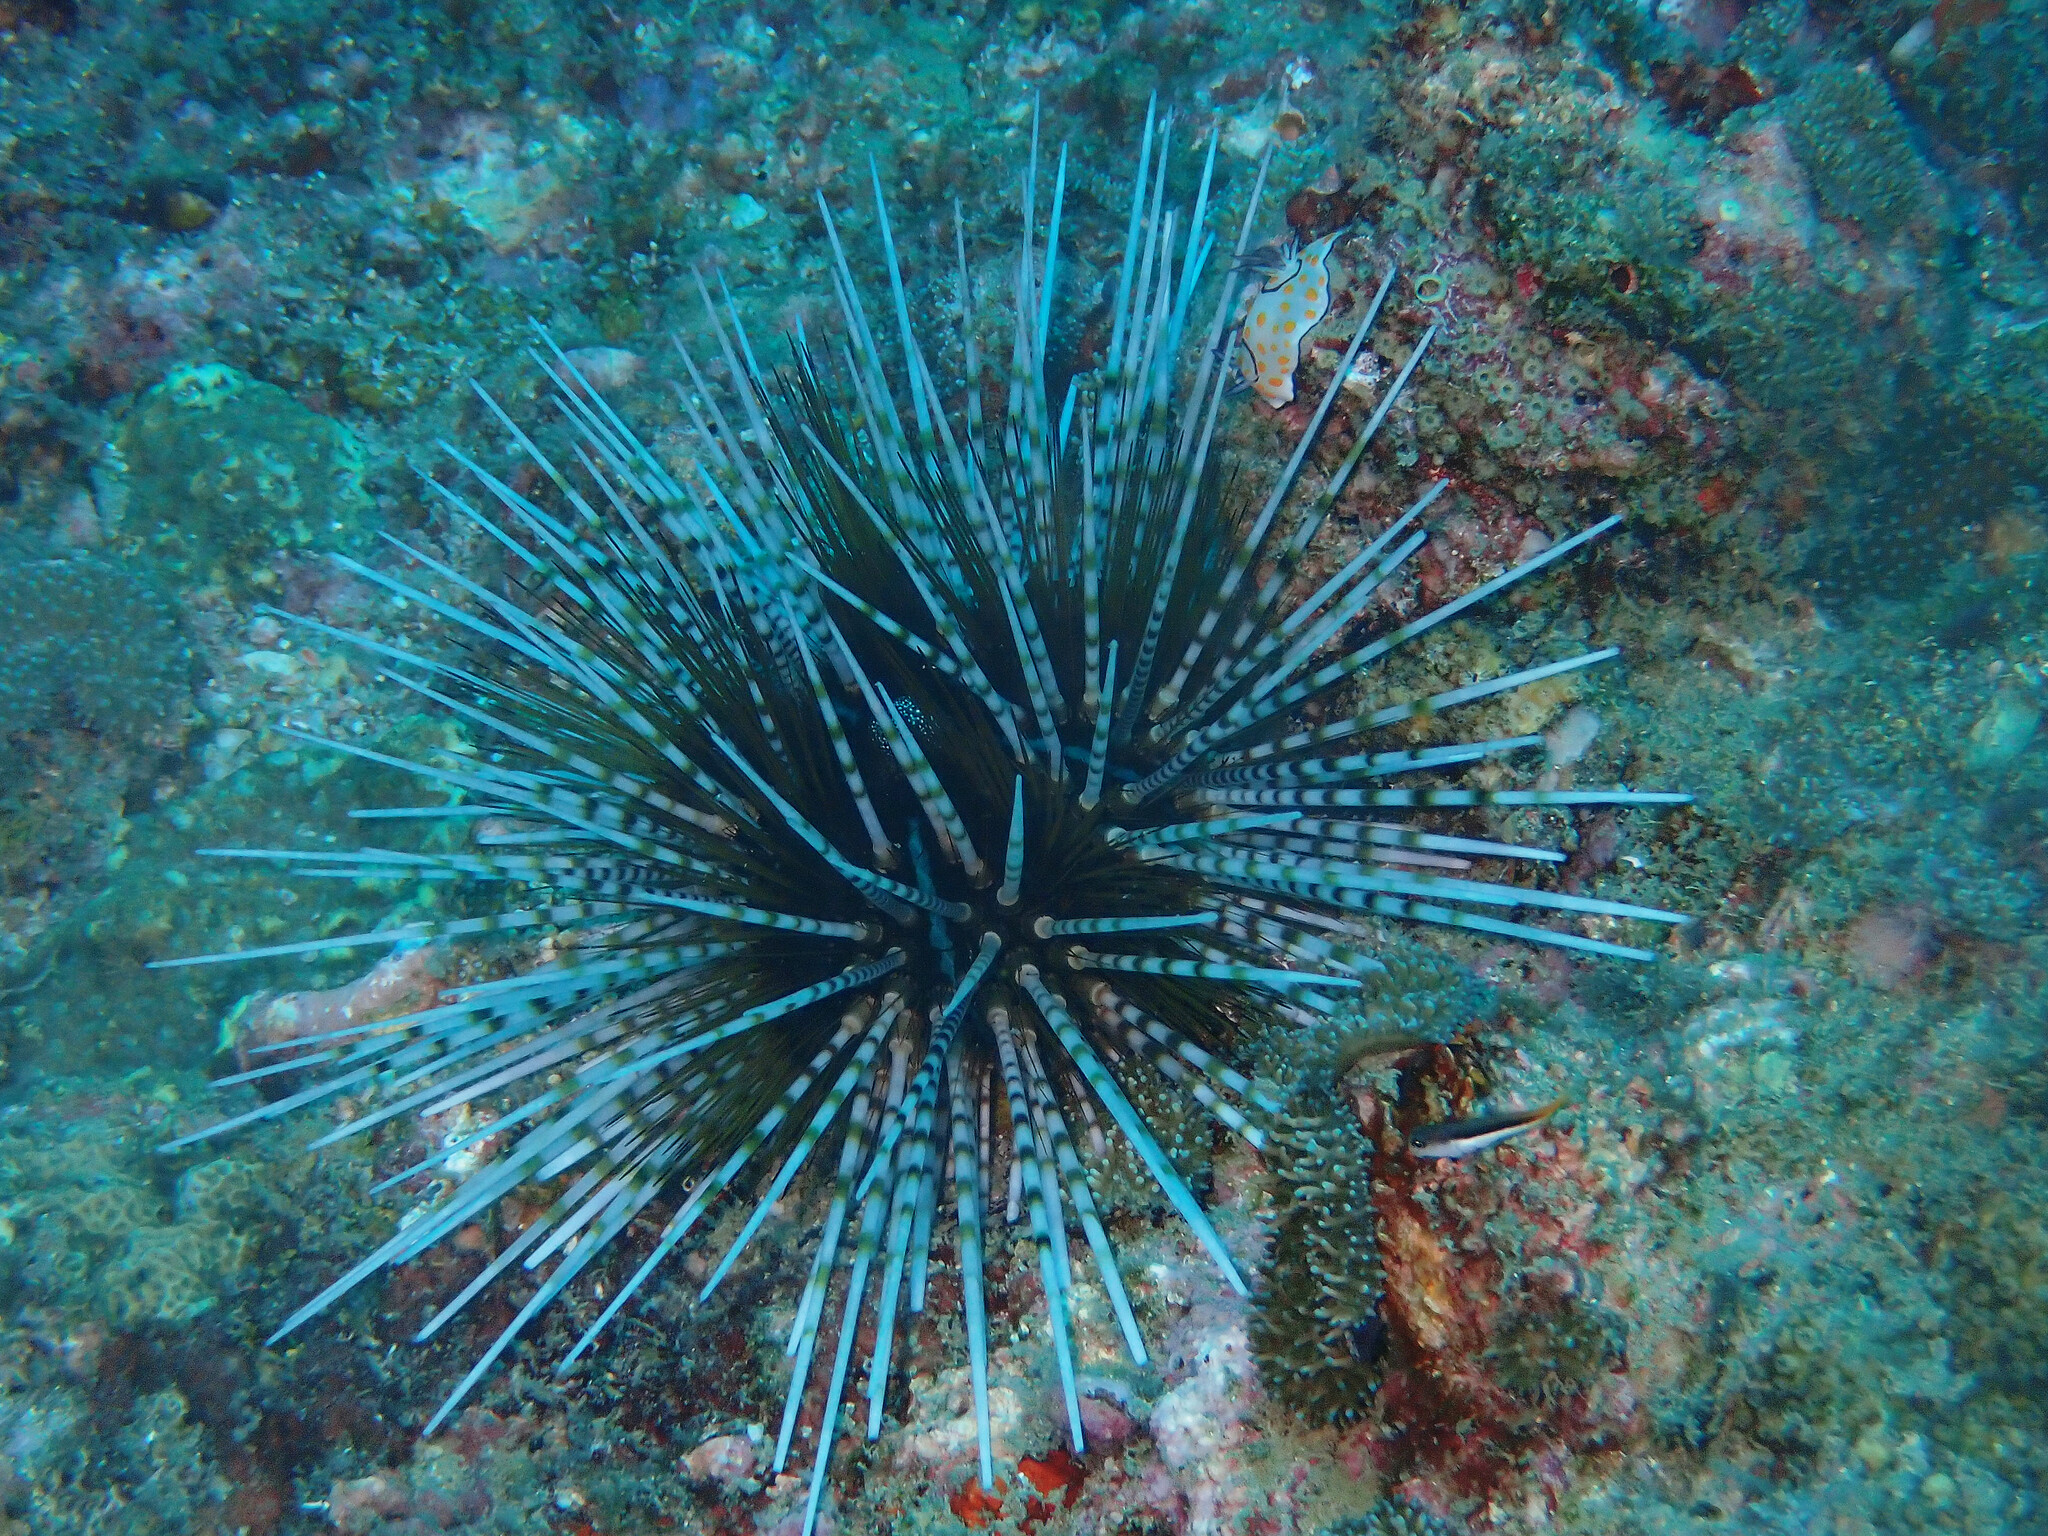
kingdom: Animalia
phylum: Echinodermata
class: Echinoidea
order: Diadematoida
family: Diadematidae
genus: Echinothrix
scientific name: Echinothrix calamaris
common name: Banded sea urchin
